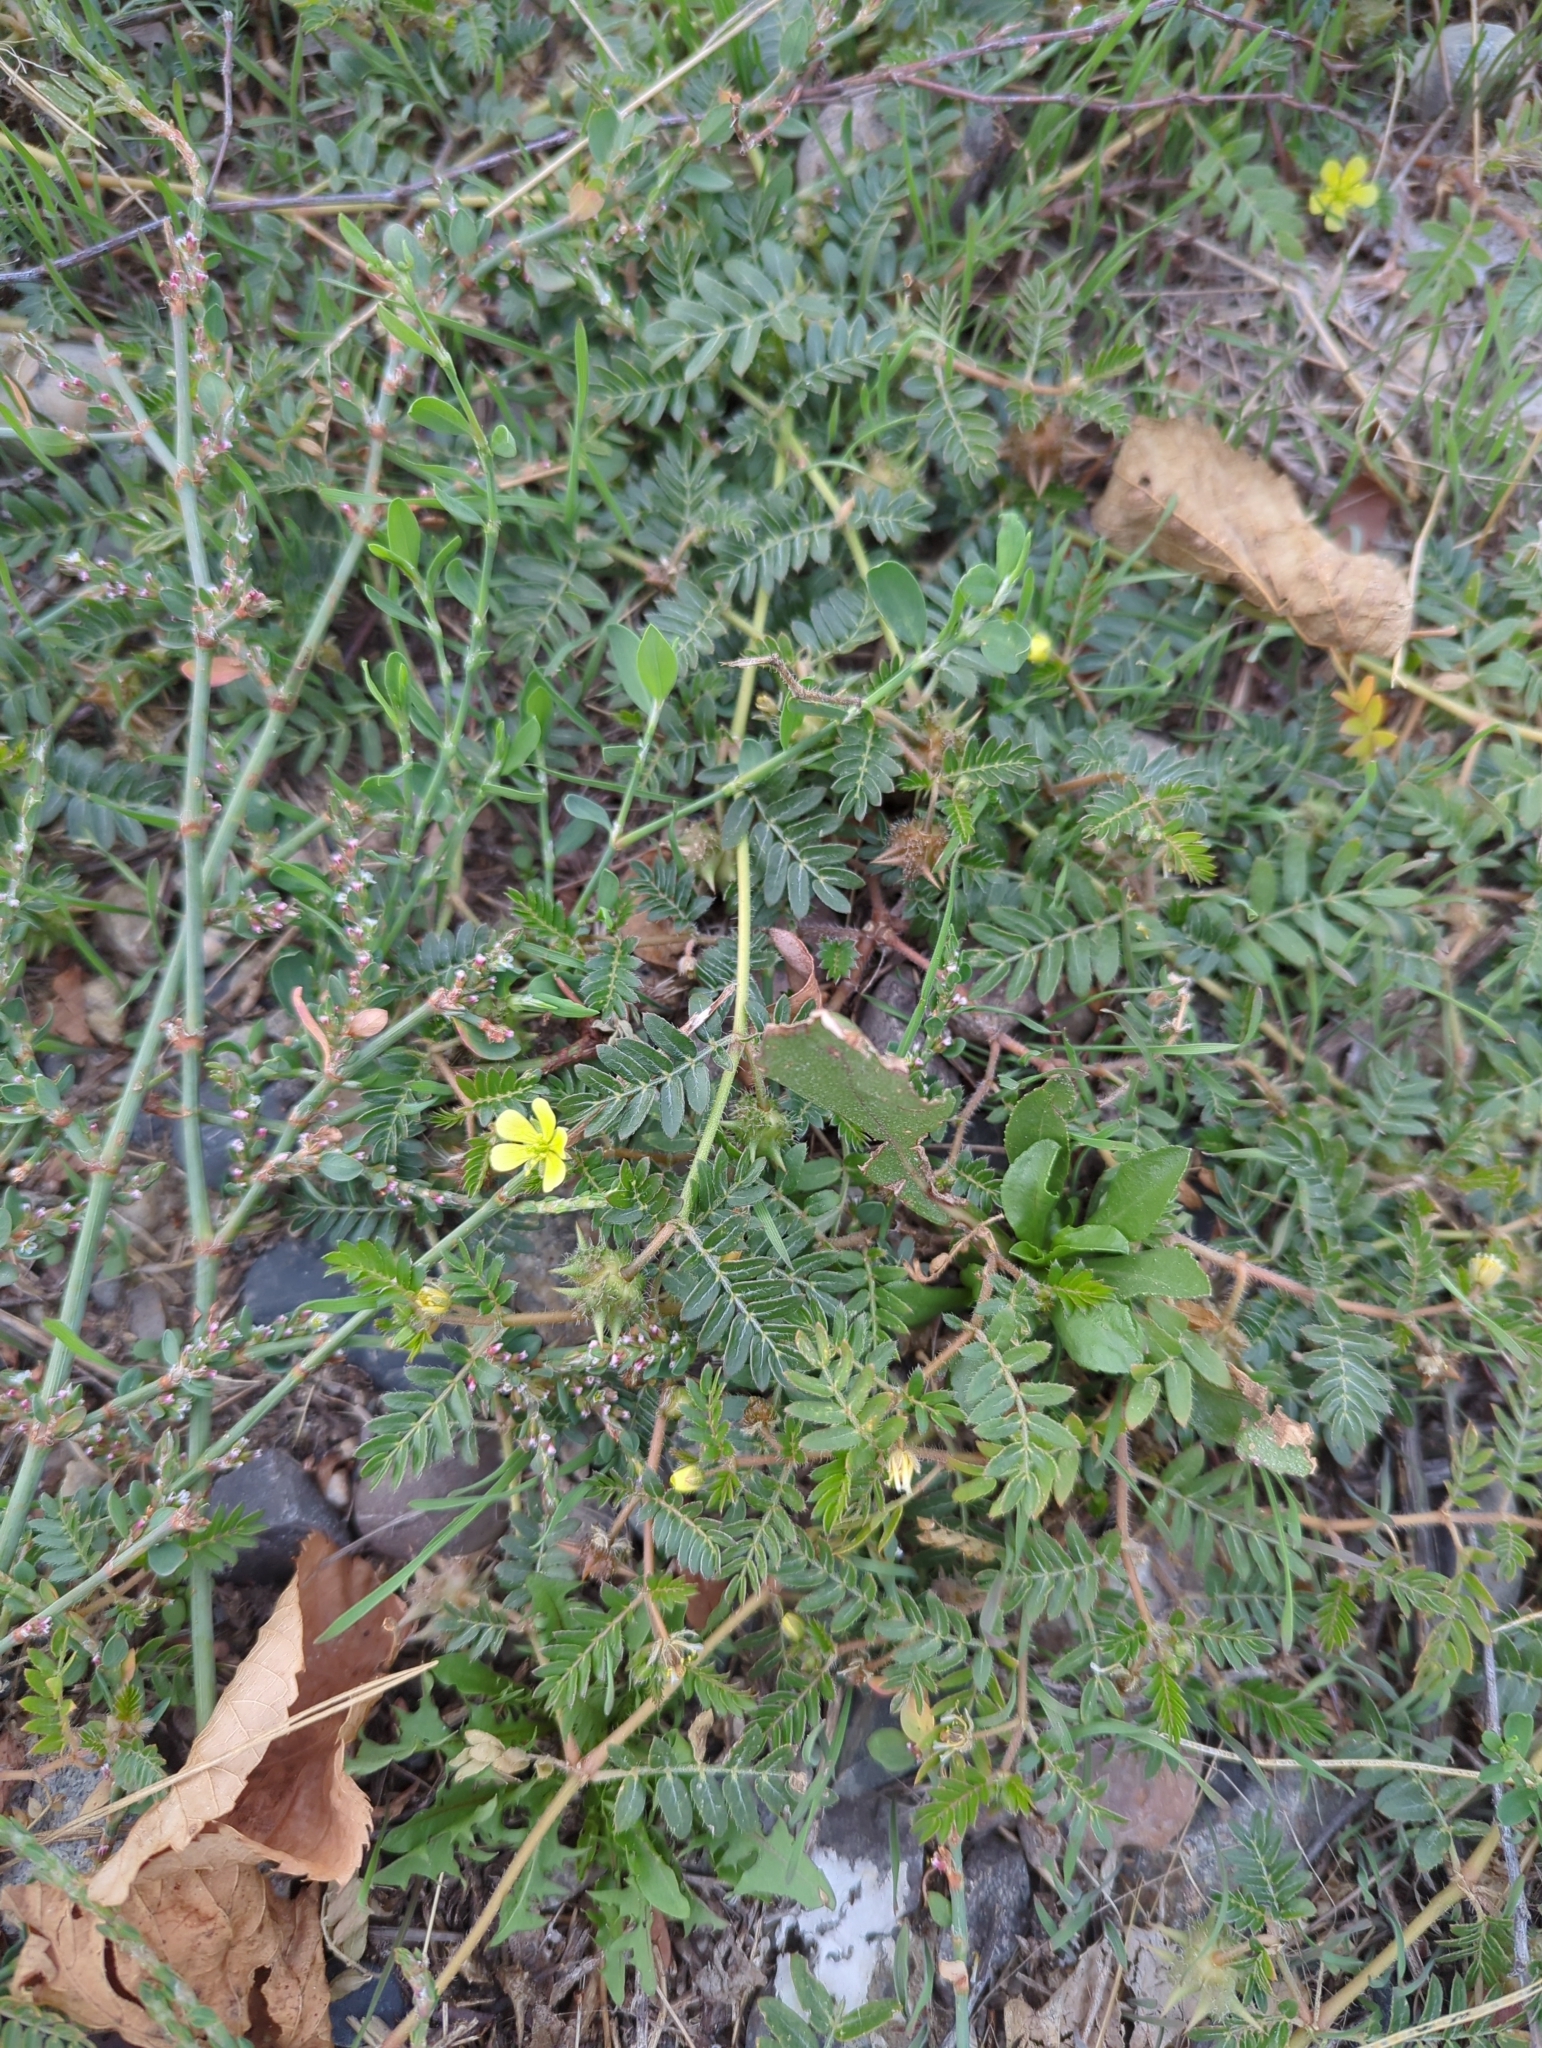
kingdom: Plantae
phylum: Tracheophyta
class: Magnoliopsida
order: Zygophyllales
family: Zygophyllaceae
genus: Tribulus
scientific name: Tribulus terrestris
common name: Puncturevine
